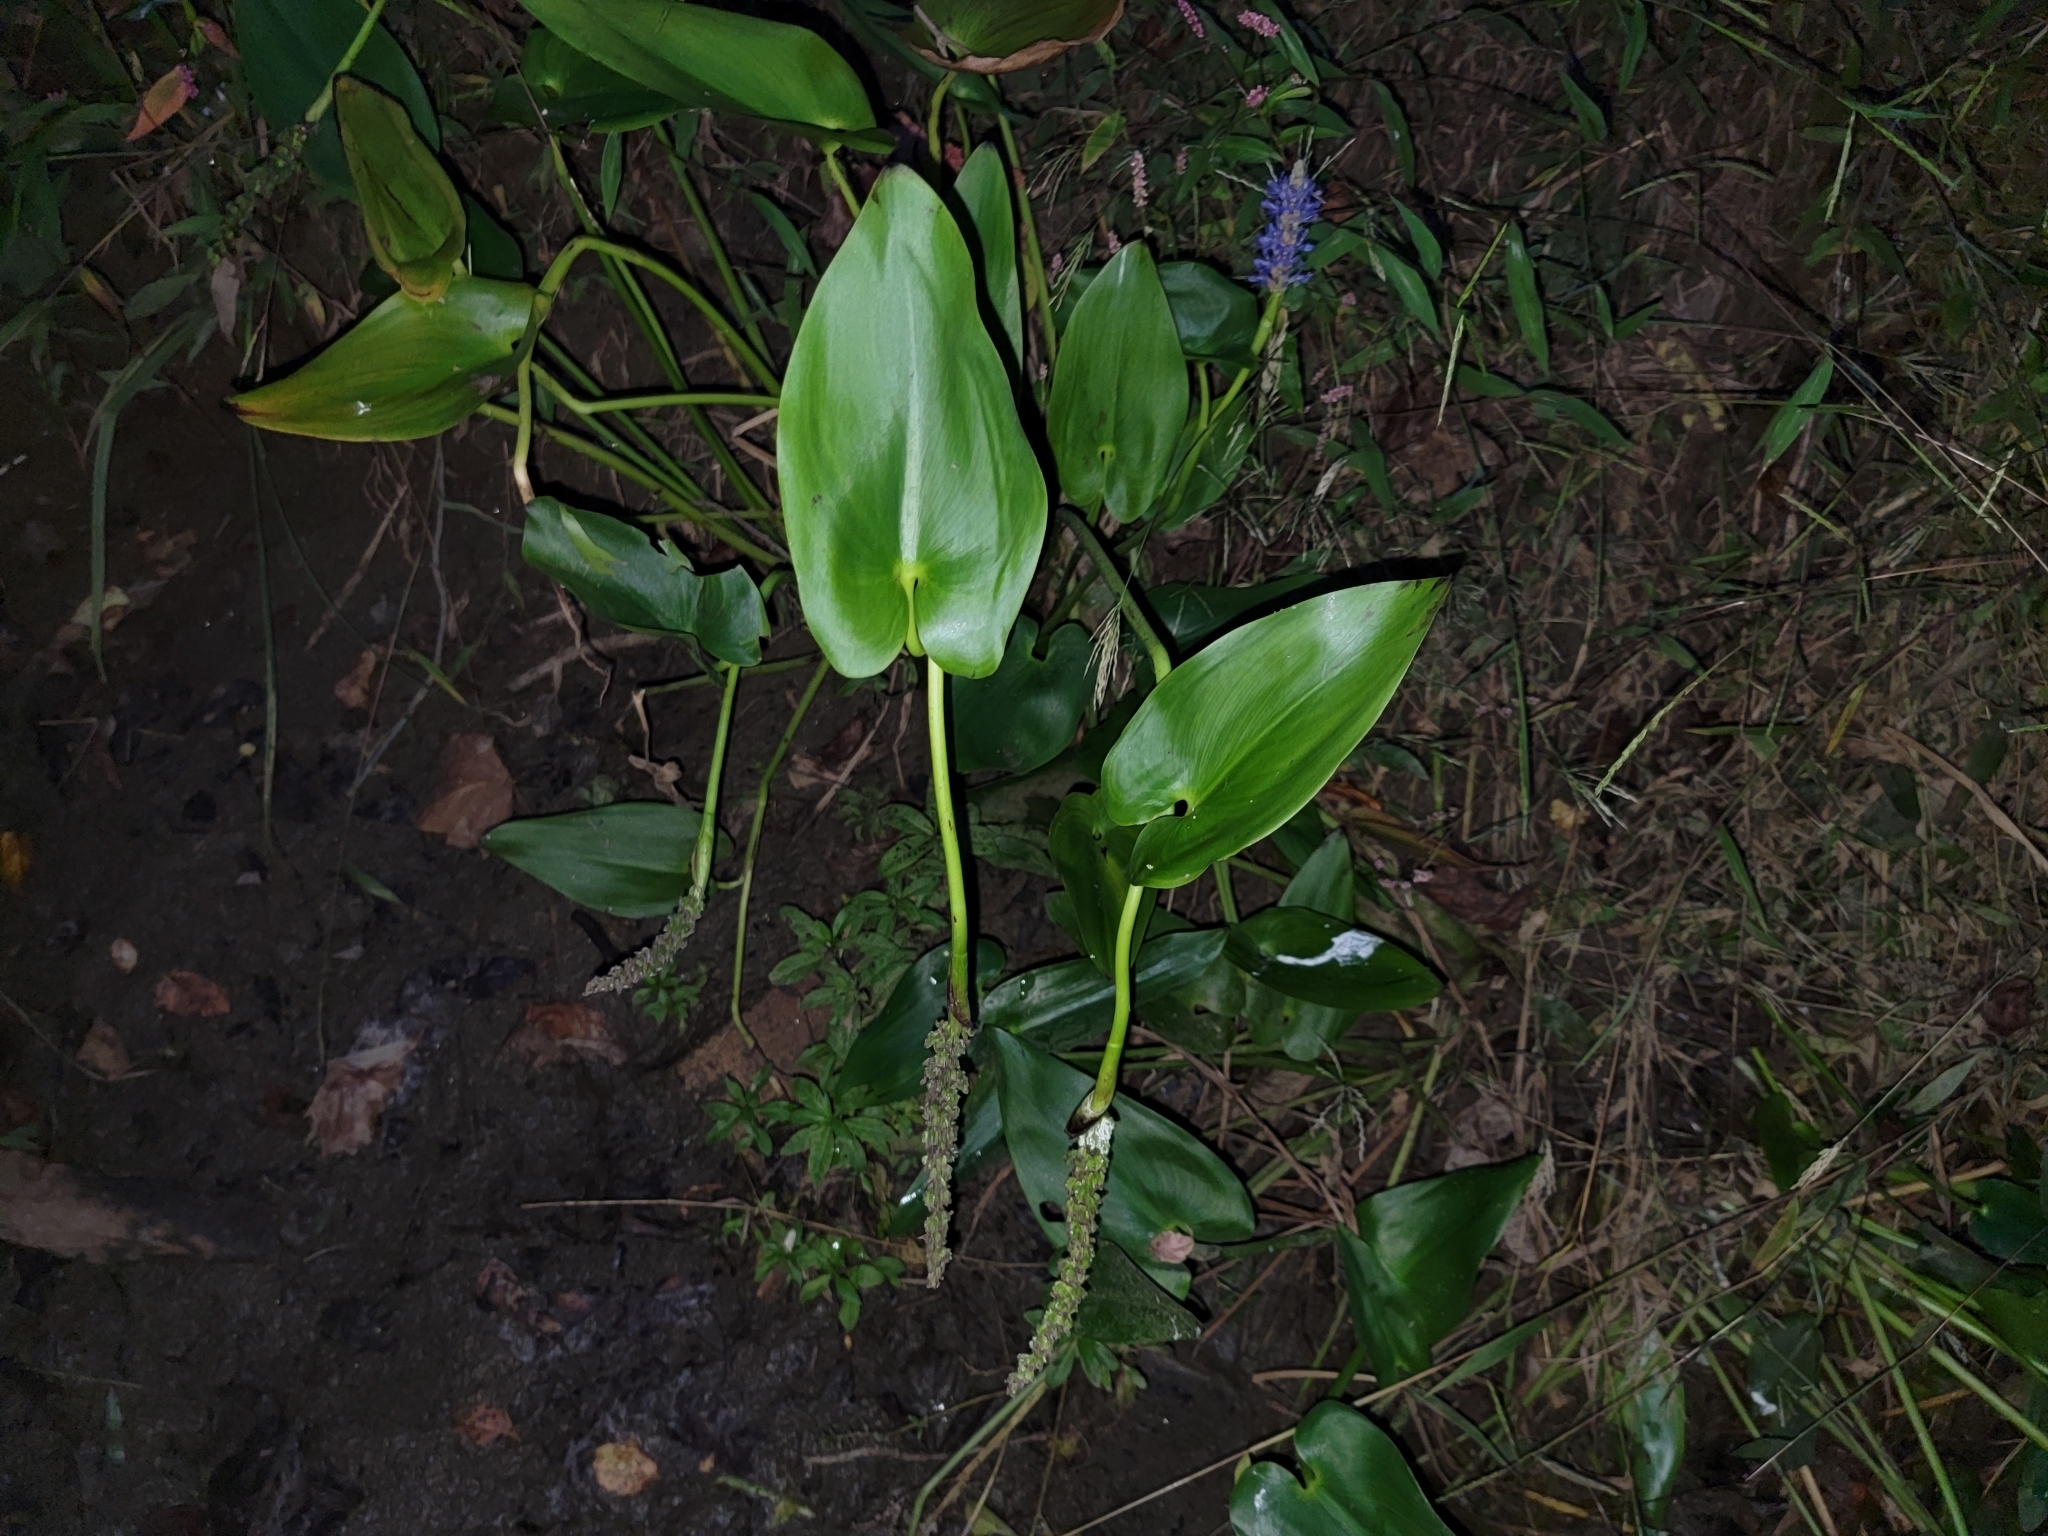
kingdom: Plantae
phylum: Tracheophyta
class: Liliopsida
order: Commelinales
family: Pontederiaceae
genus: Pontederia
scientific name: Pontederia cordata
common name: Pickerelweed
